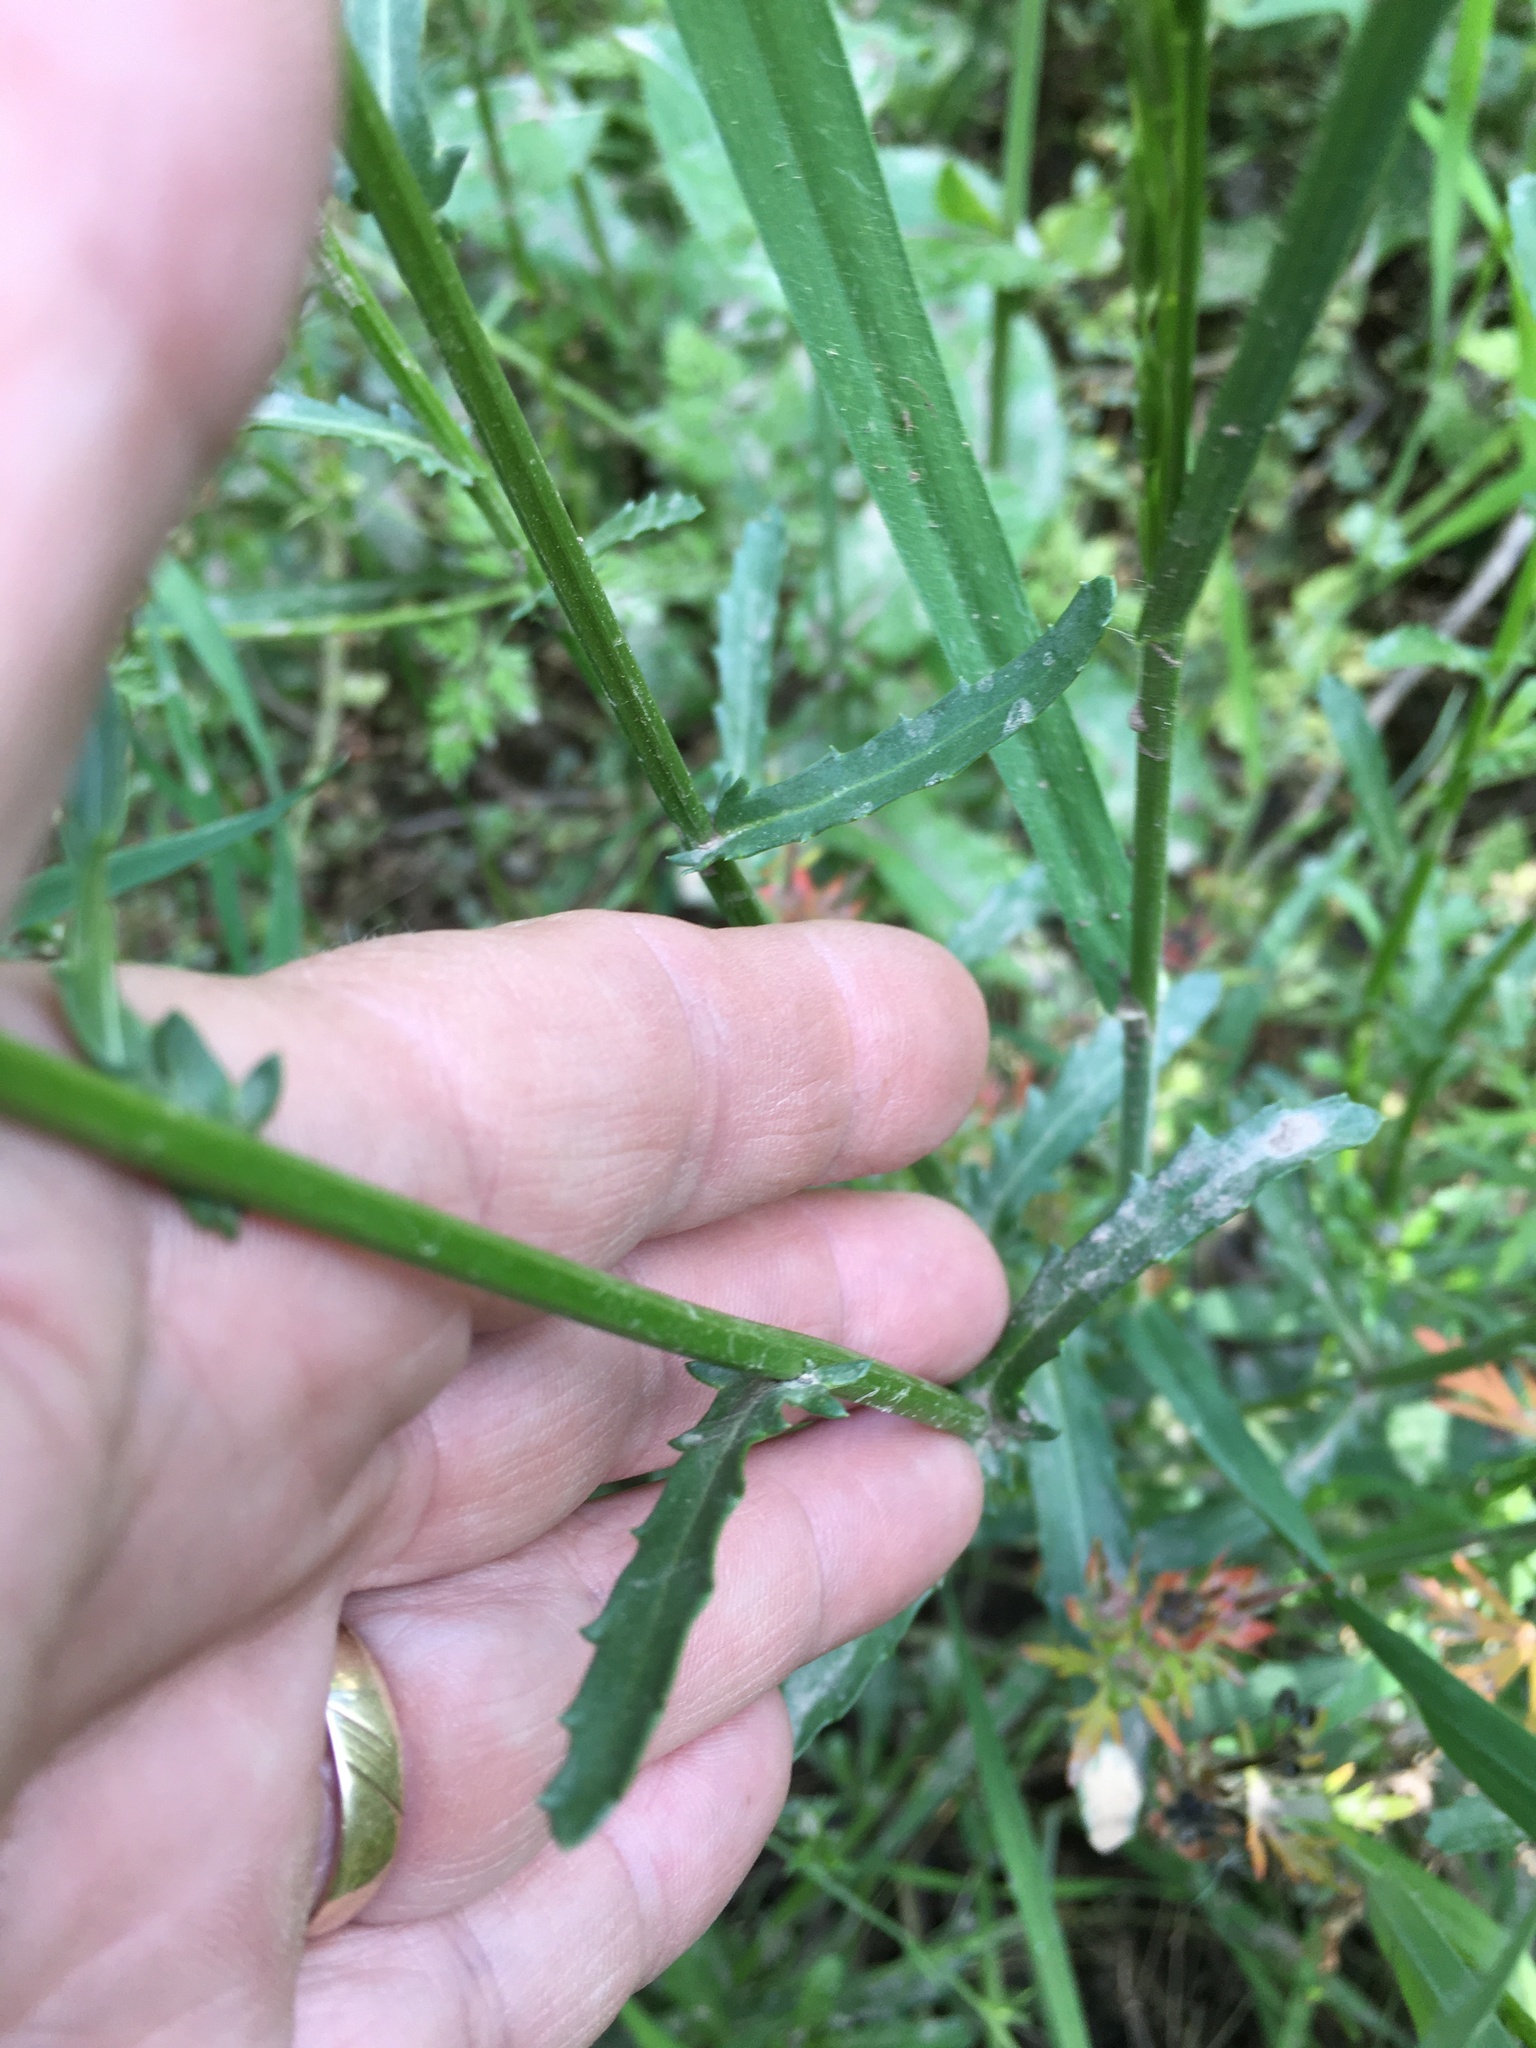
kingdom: Plantae
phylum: Tracheophyta
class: Magnoliopsida
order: Asterales
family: Asteraceae
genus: Leucanthemum
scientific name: Leucanthemum vulgare
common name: Oxeye daisy
